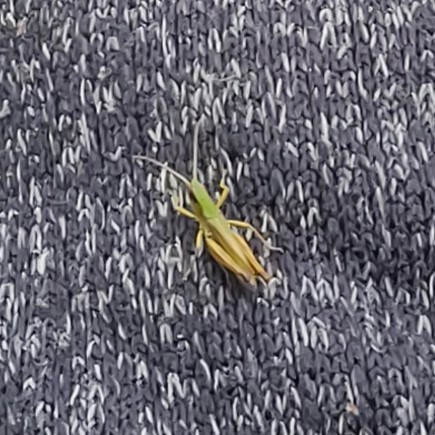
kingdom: Animalia
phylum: Arthropoda
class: Insecta
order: Orthoptera
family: Acrididae
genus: Pseudochorthippus
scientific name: Pseudochorthippus parallelus
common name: Meadow grasshopper
